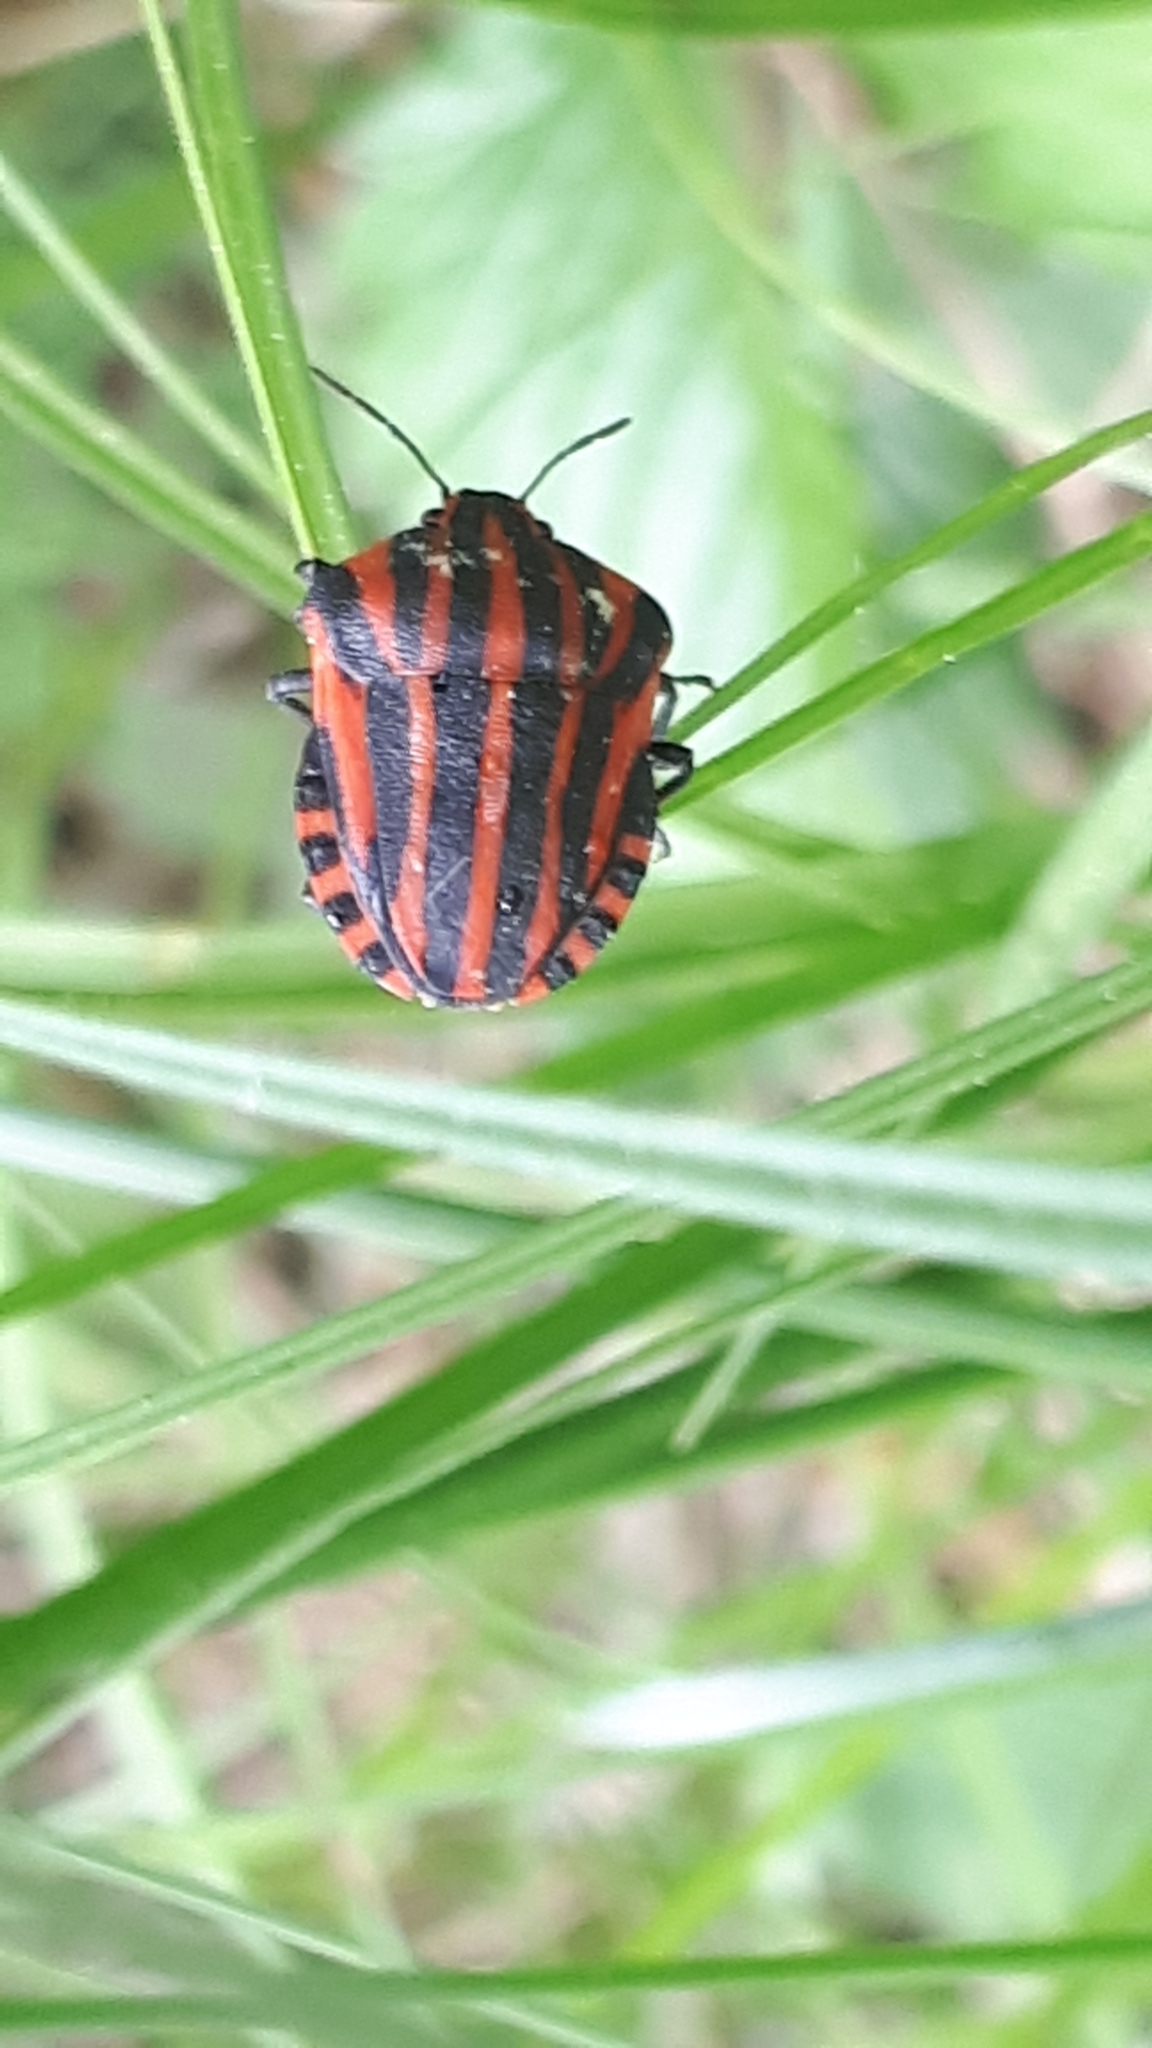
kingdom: Animalia
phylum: Arthropoda
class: Insecta
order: Hemiptera
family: Pentatomidae
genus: Graphosoma
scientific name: Graphosoma italicum
